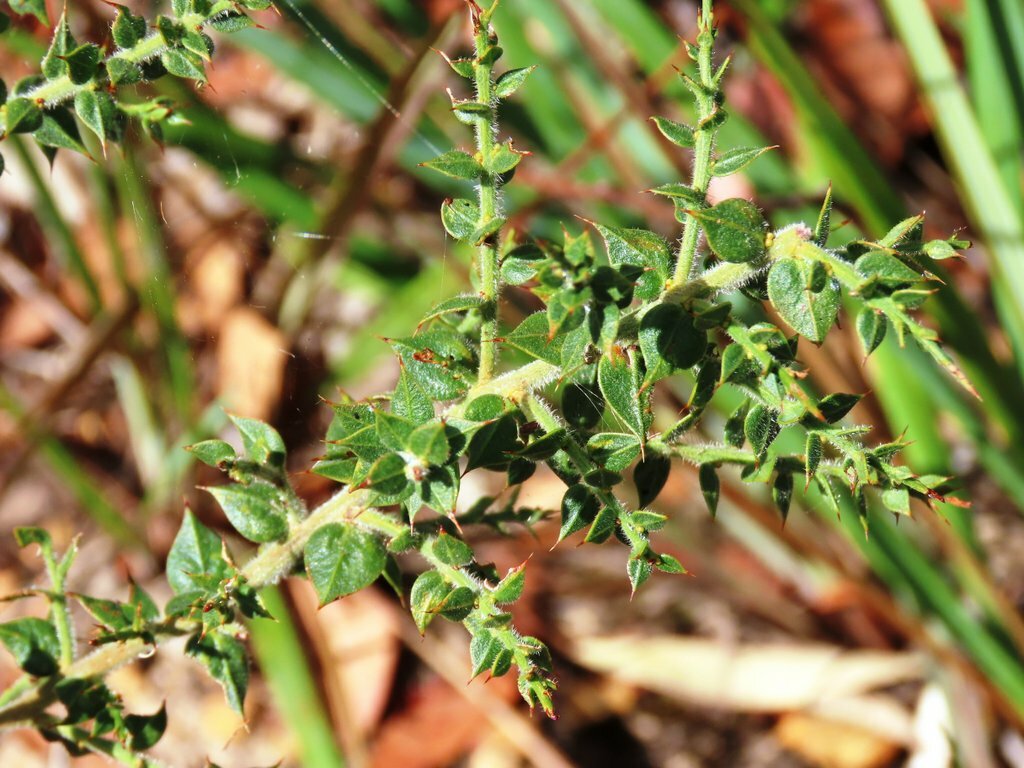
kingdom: Plantae
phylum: Tracheophyta
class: Magnoliopsida
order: Fabales
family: Fabaceae
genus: Daviesia
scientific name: Daviesia ulicifolia
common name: Gorse bitter-pea
